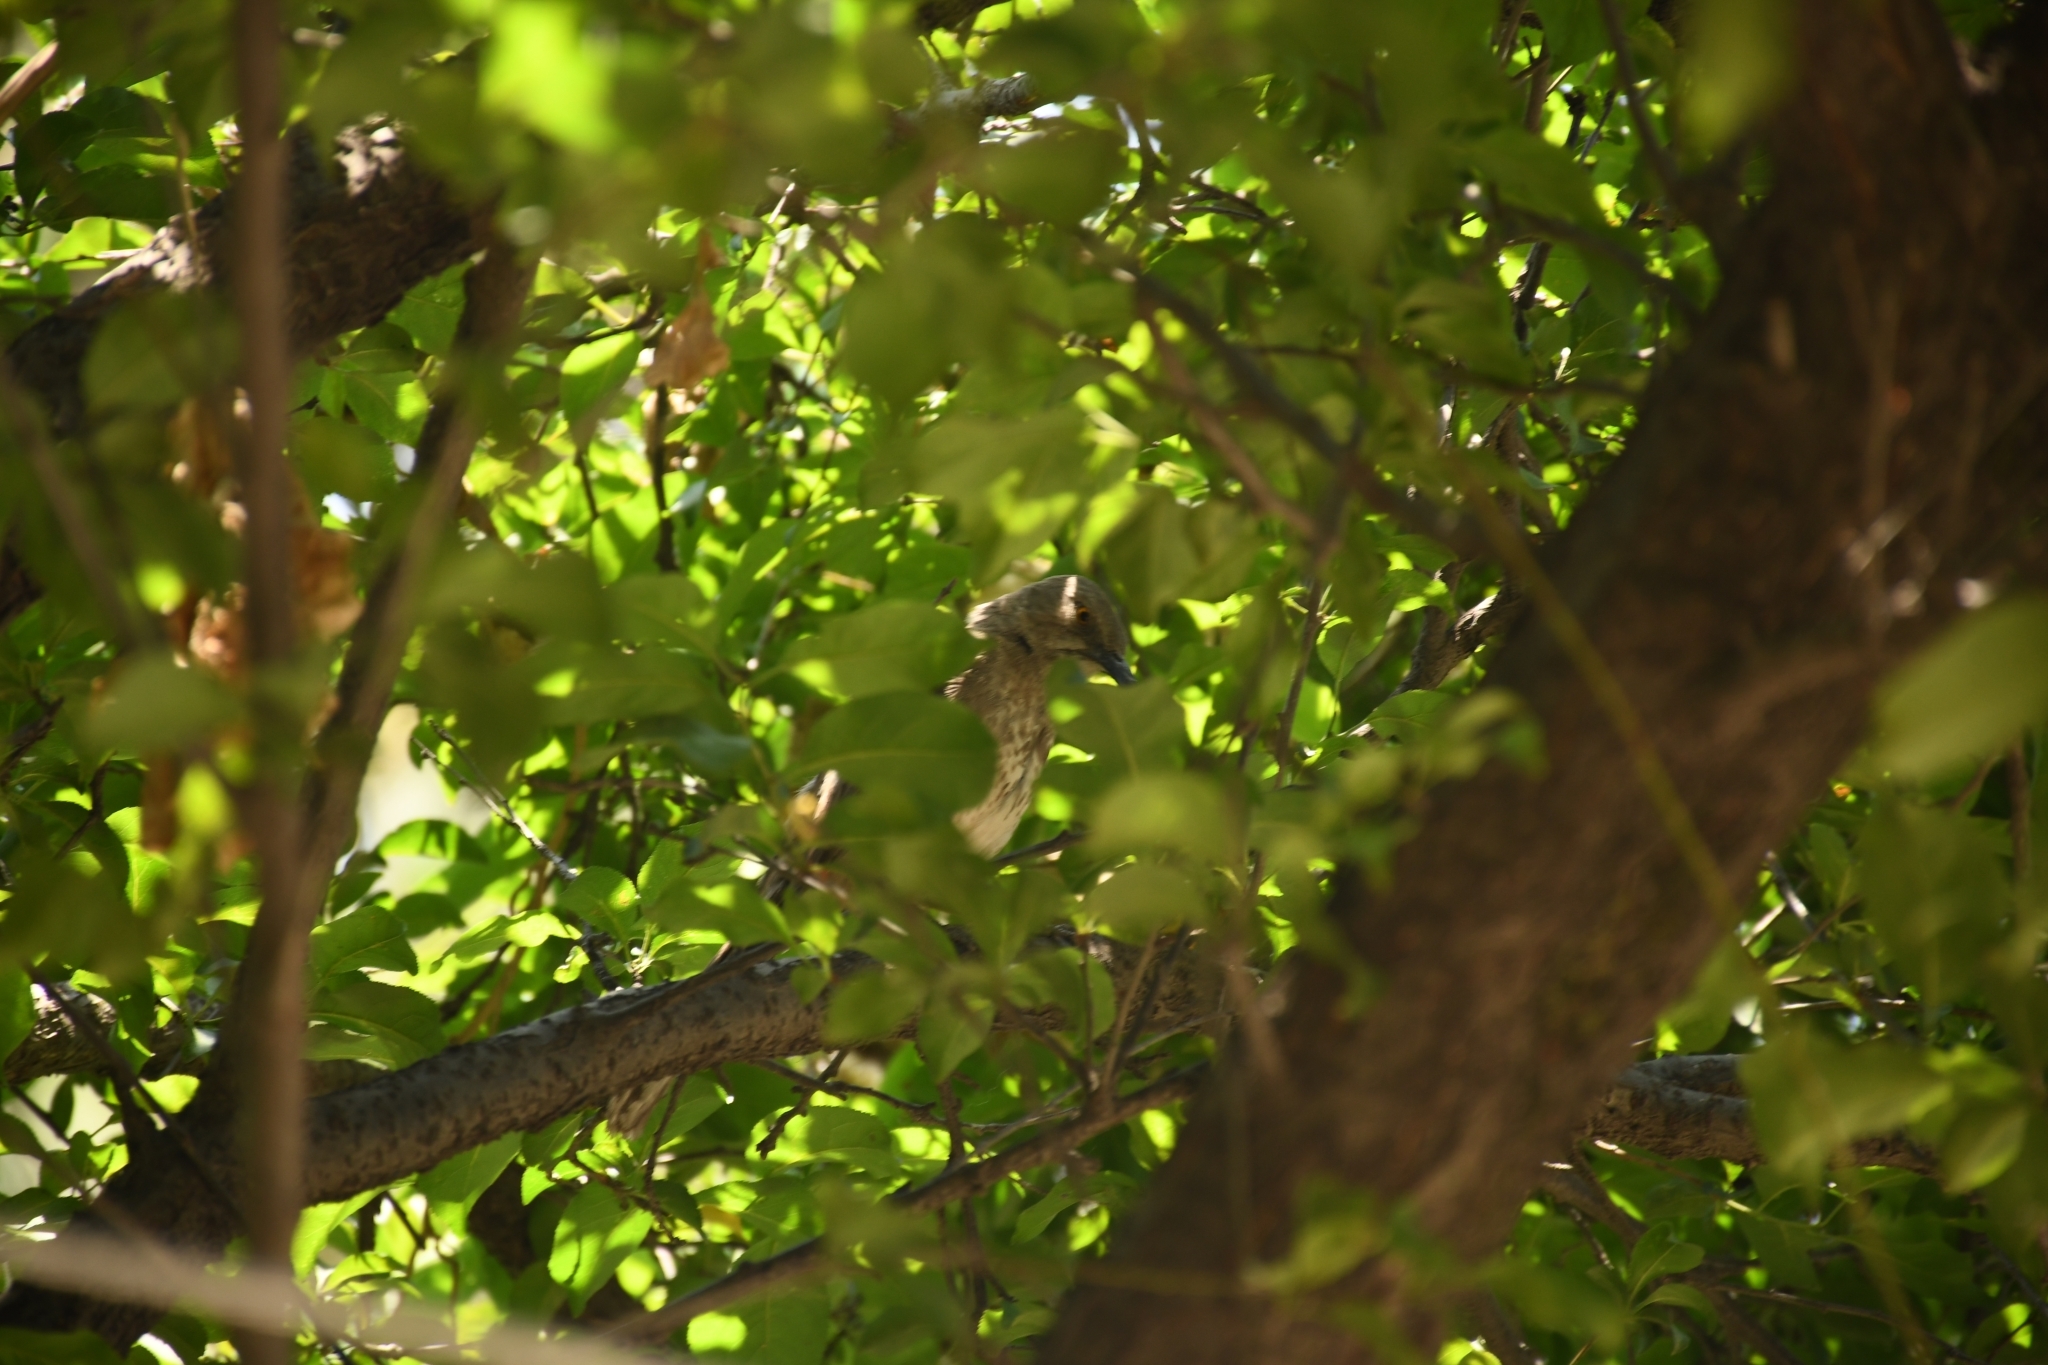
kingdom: Animalia
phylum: Chordata
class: Aves
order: Passeriformes
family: Mimidae
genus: Toxostoma
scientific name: Toxostoma curvirostre
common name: Curve-billed thrasher
